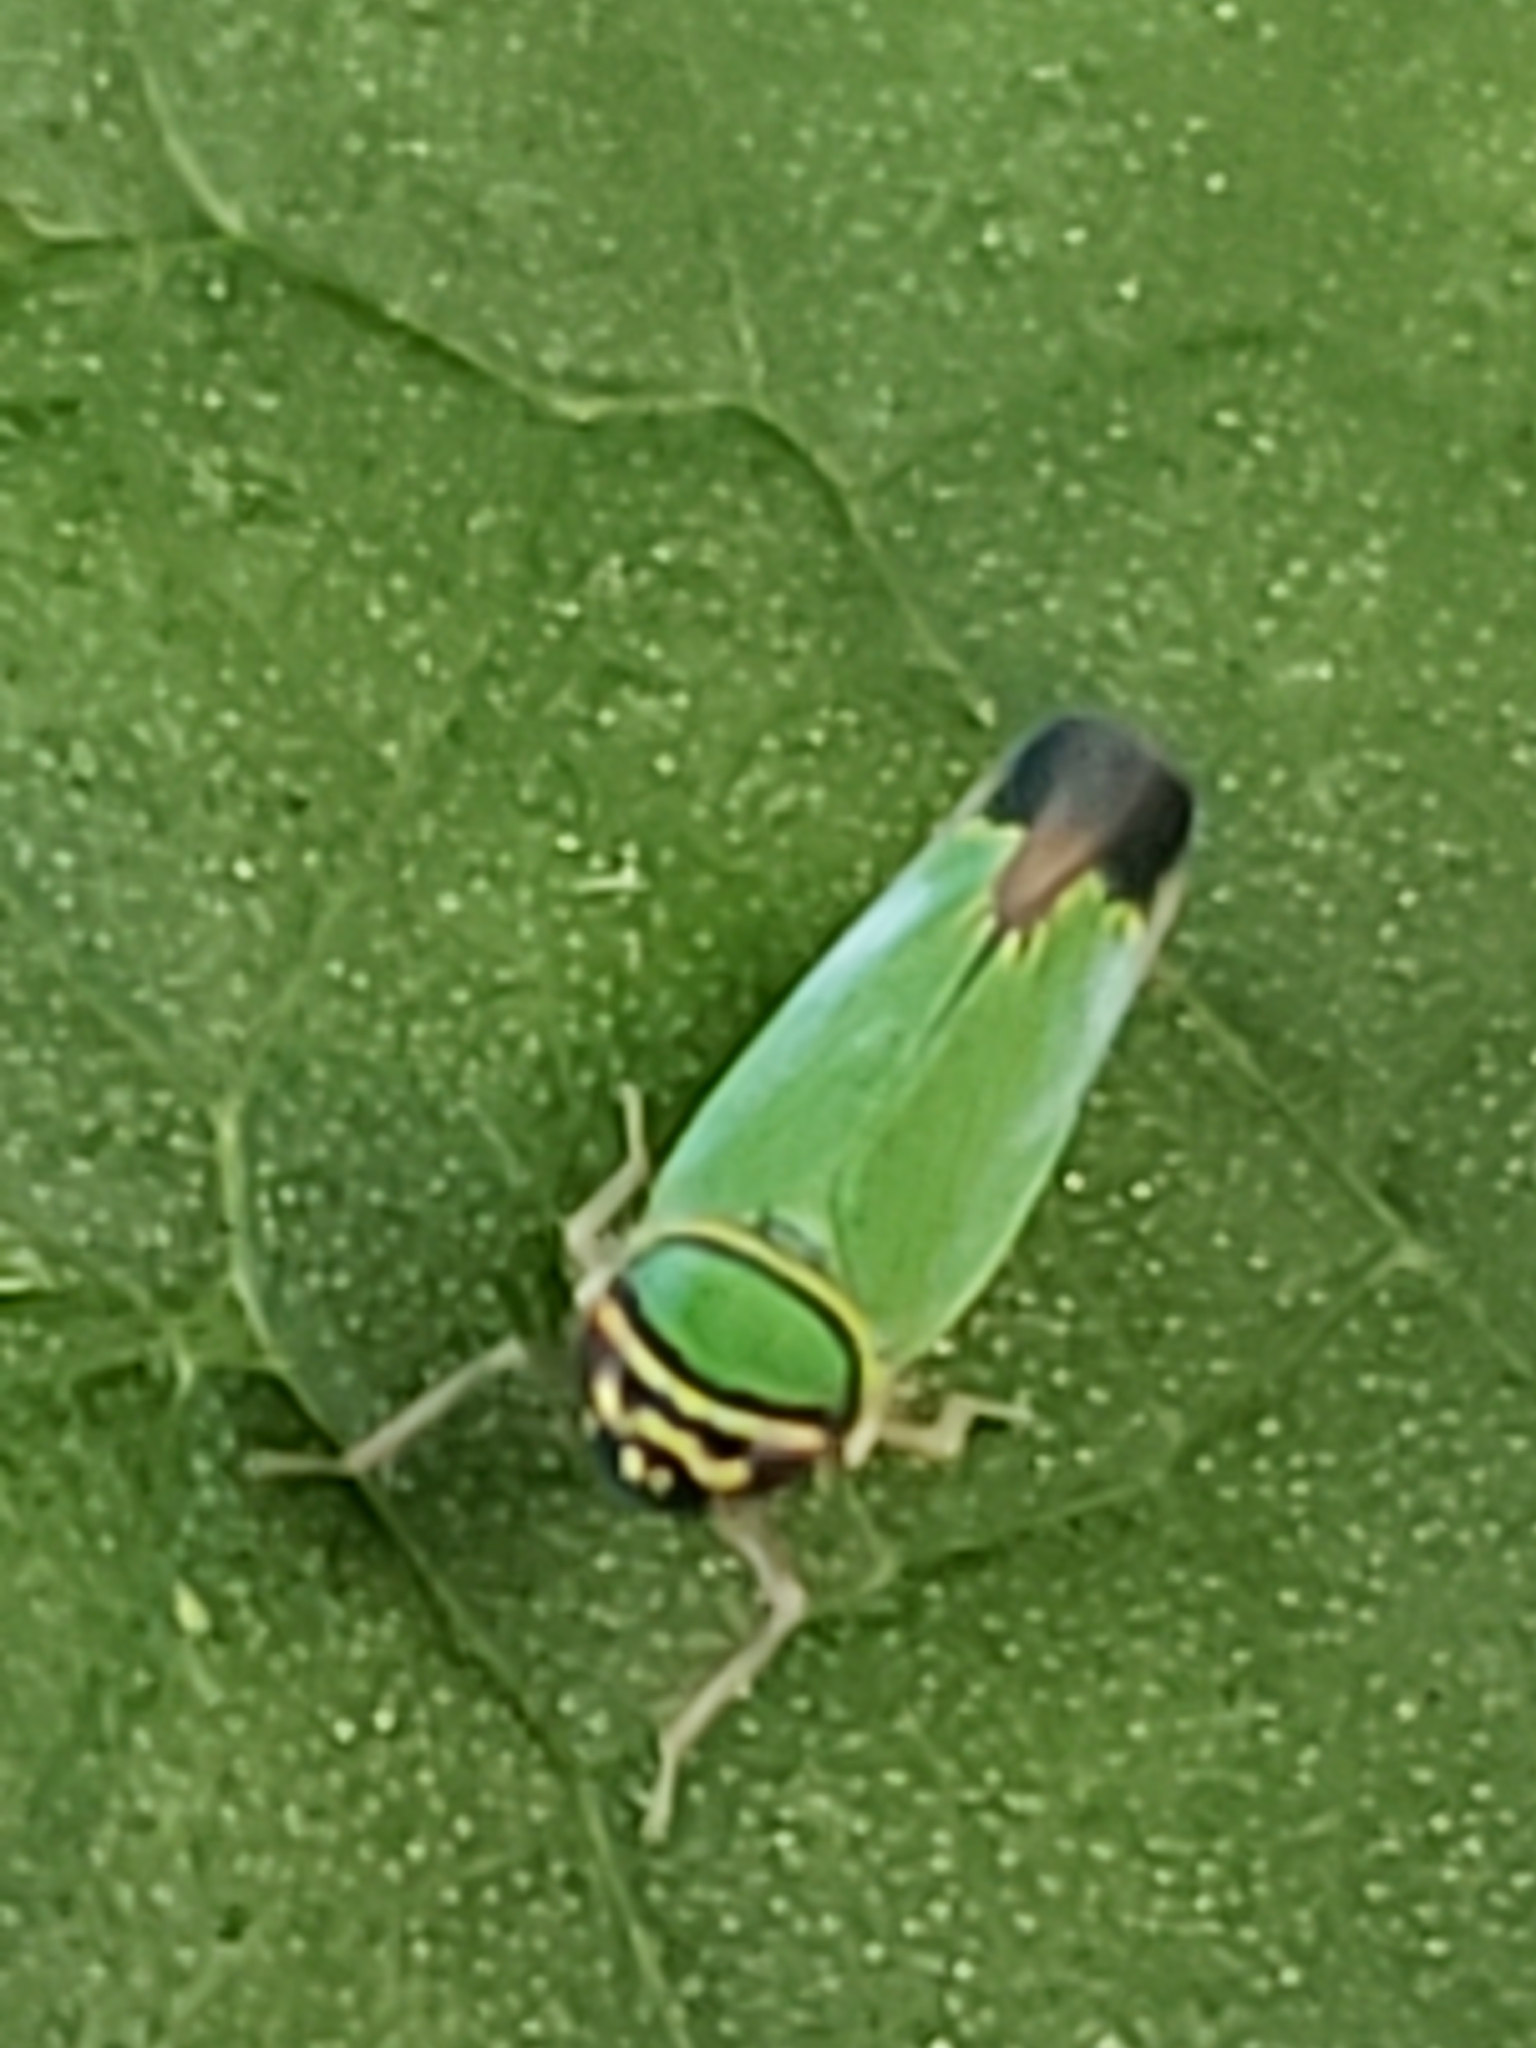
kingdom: Animalia
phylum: Arthropoda
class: Insecta
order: Hemiptera
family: Cicadellidae
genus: Tylozygus
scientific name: Tylozygus geometricus
